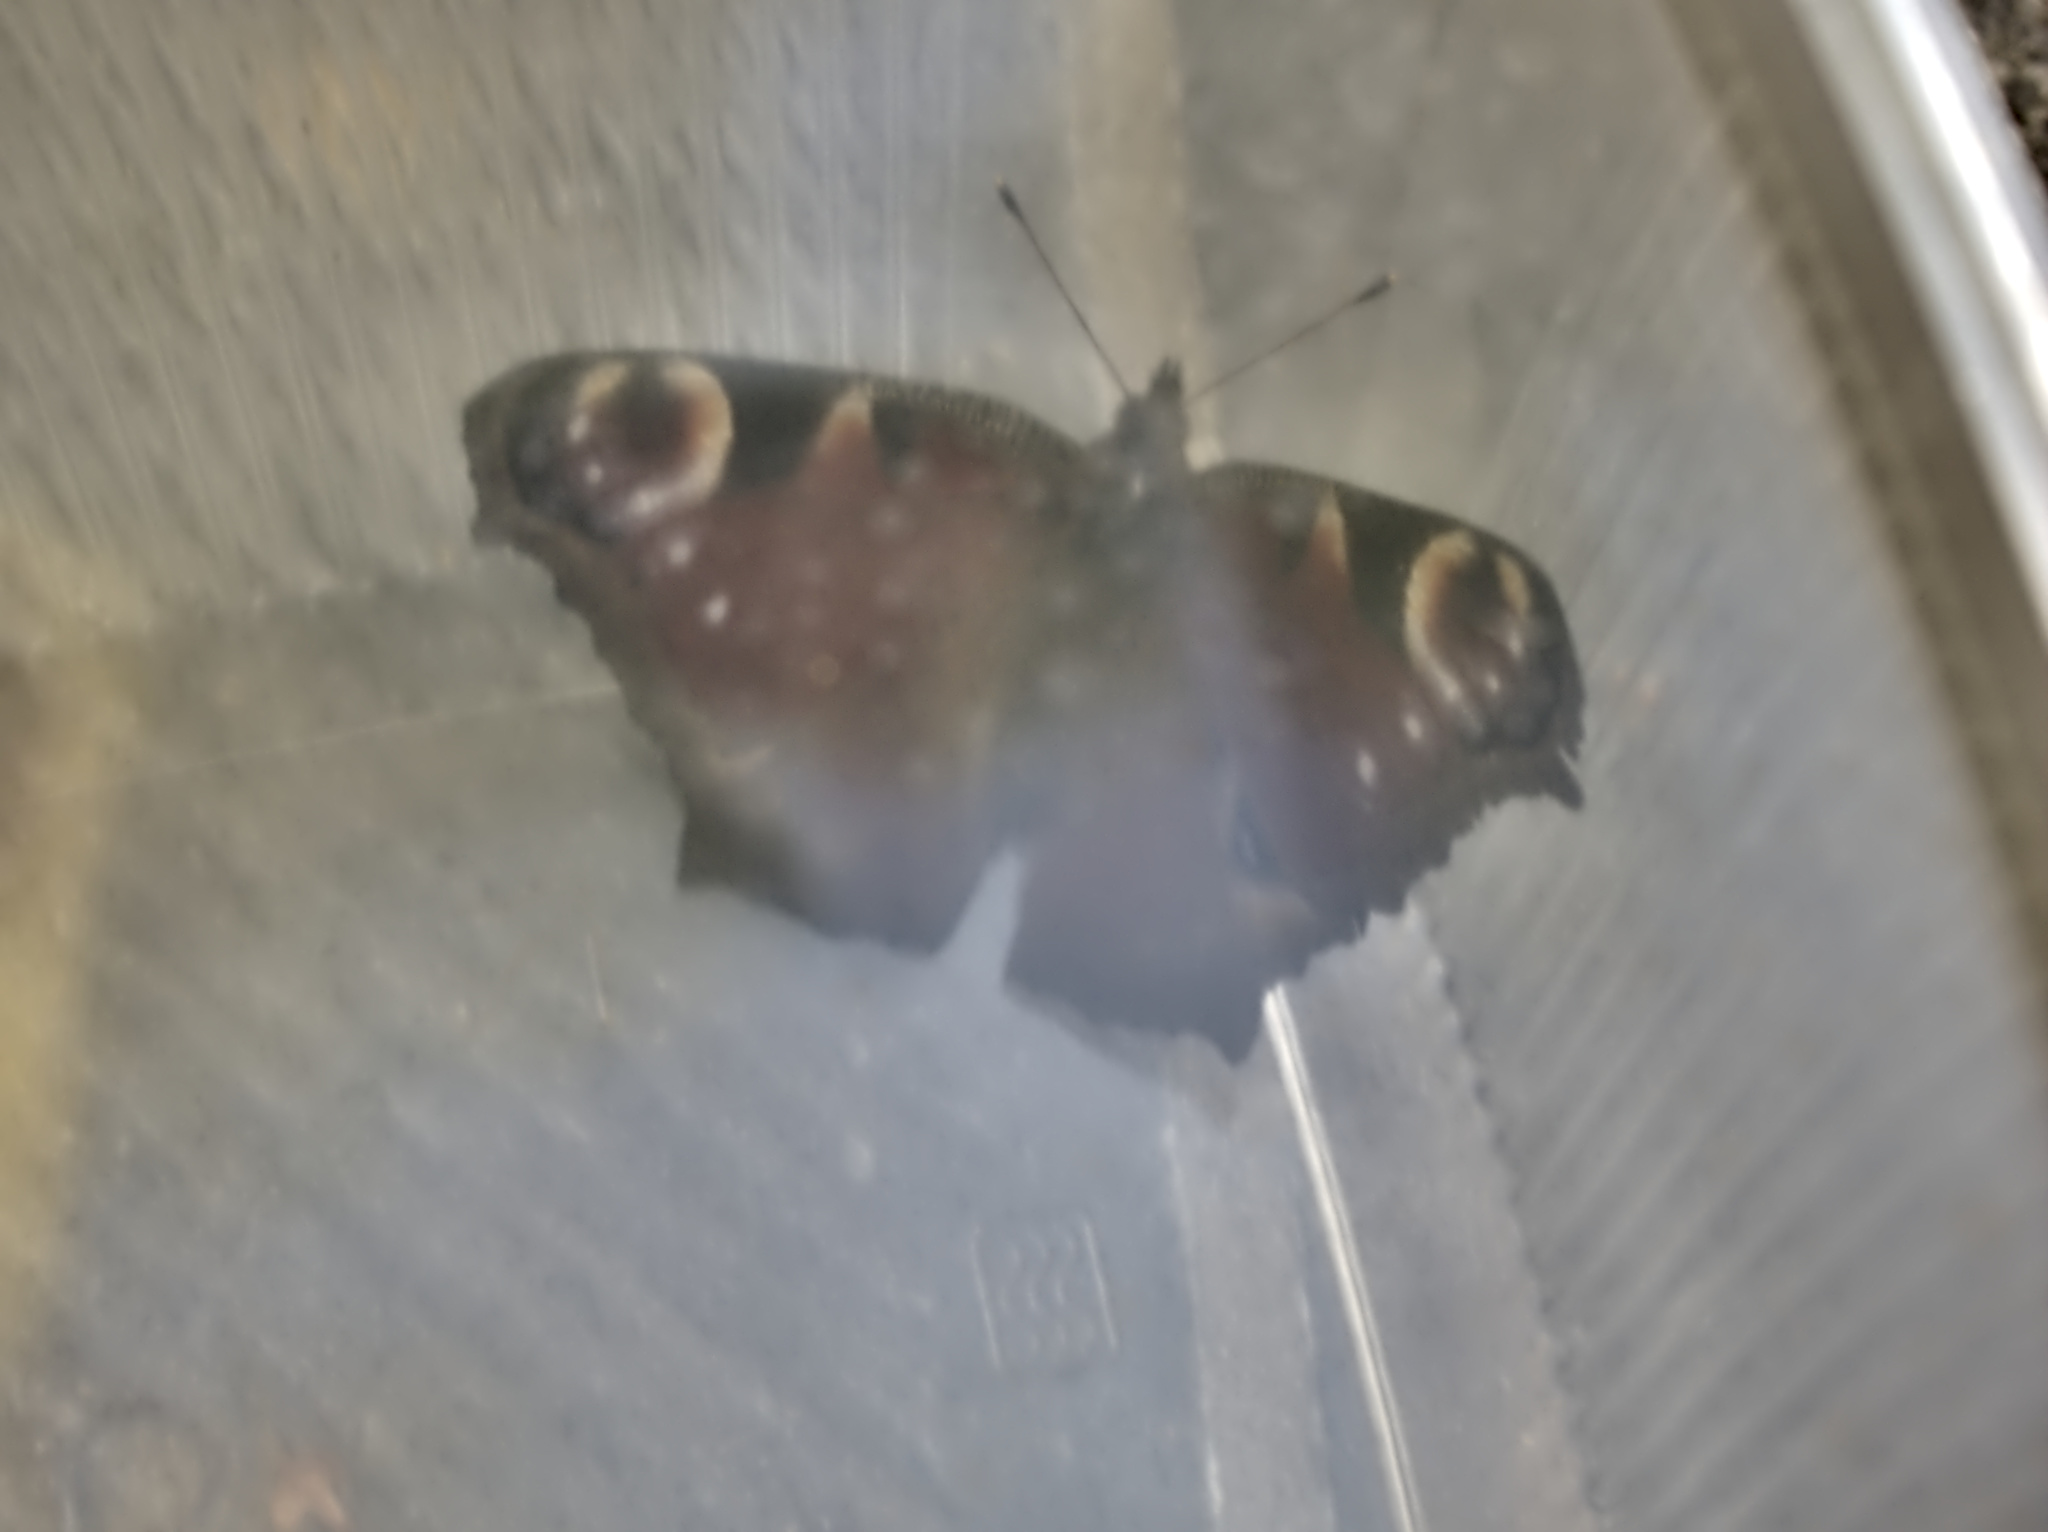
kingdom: Animalia
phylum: Arthropoda
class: Insecta
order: Lepidoptera
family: Nymphalidae
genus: Aglais
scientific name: Aglais io
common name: Peacock
